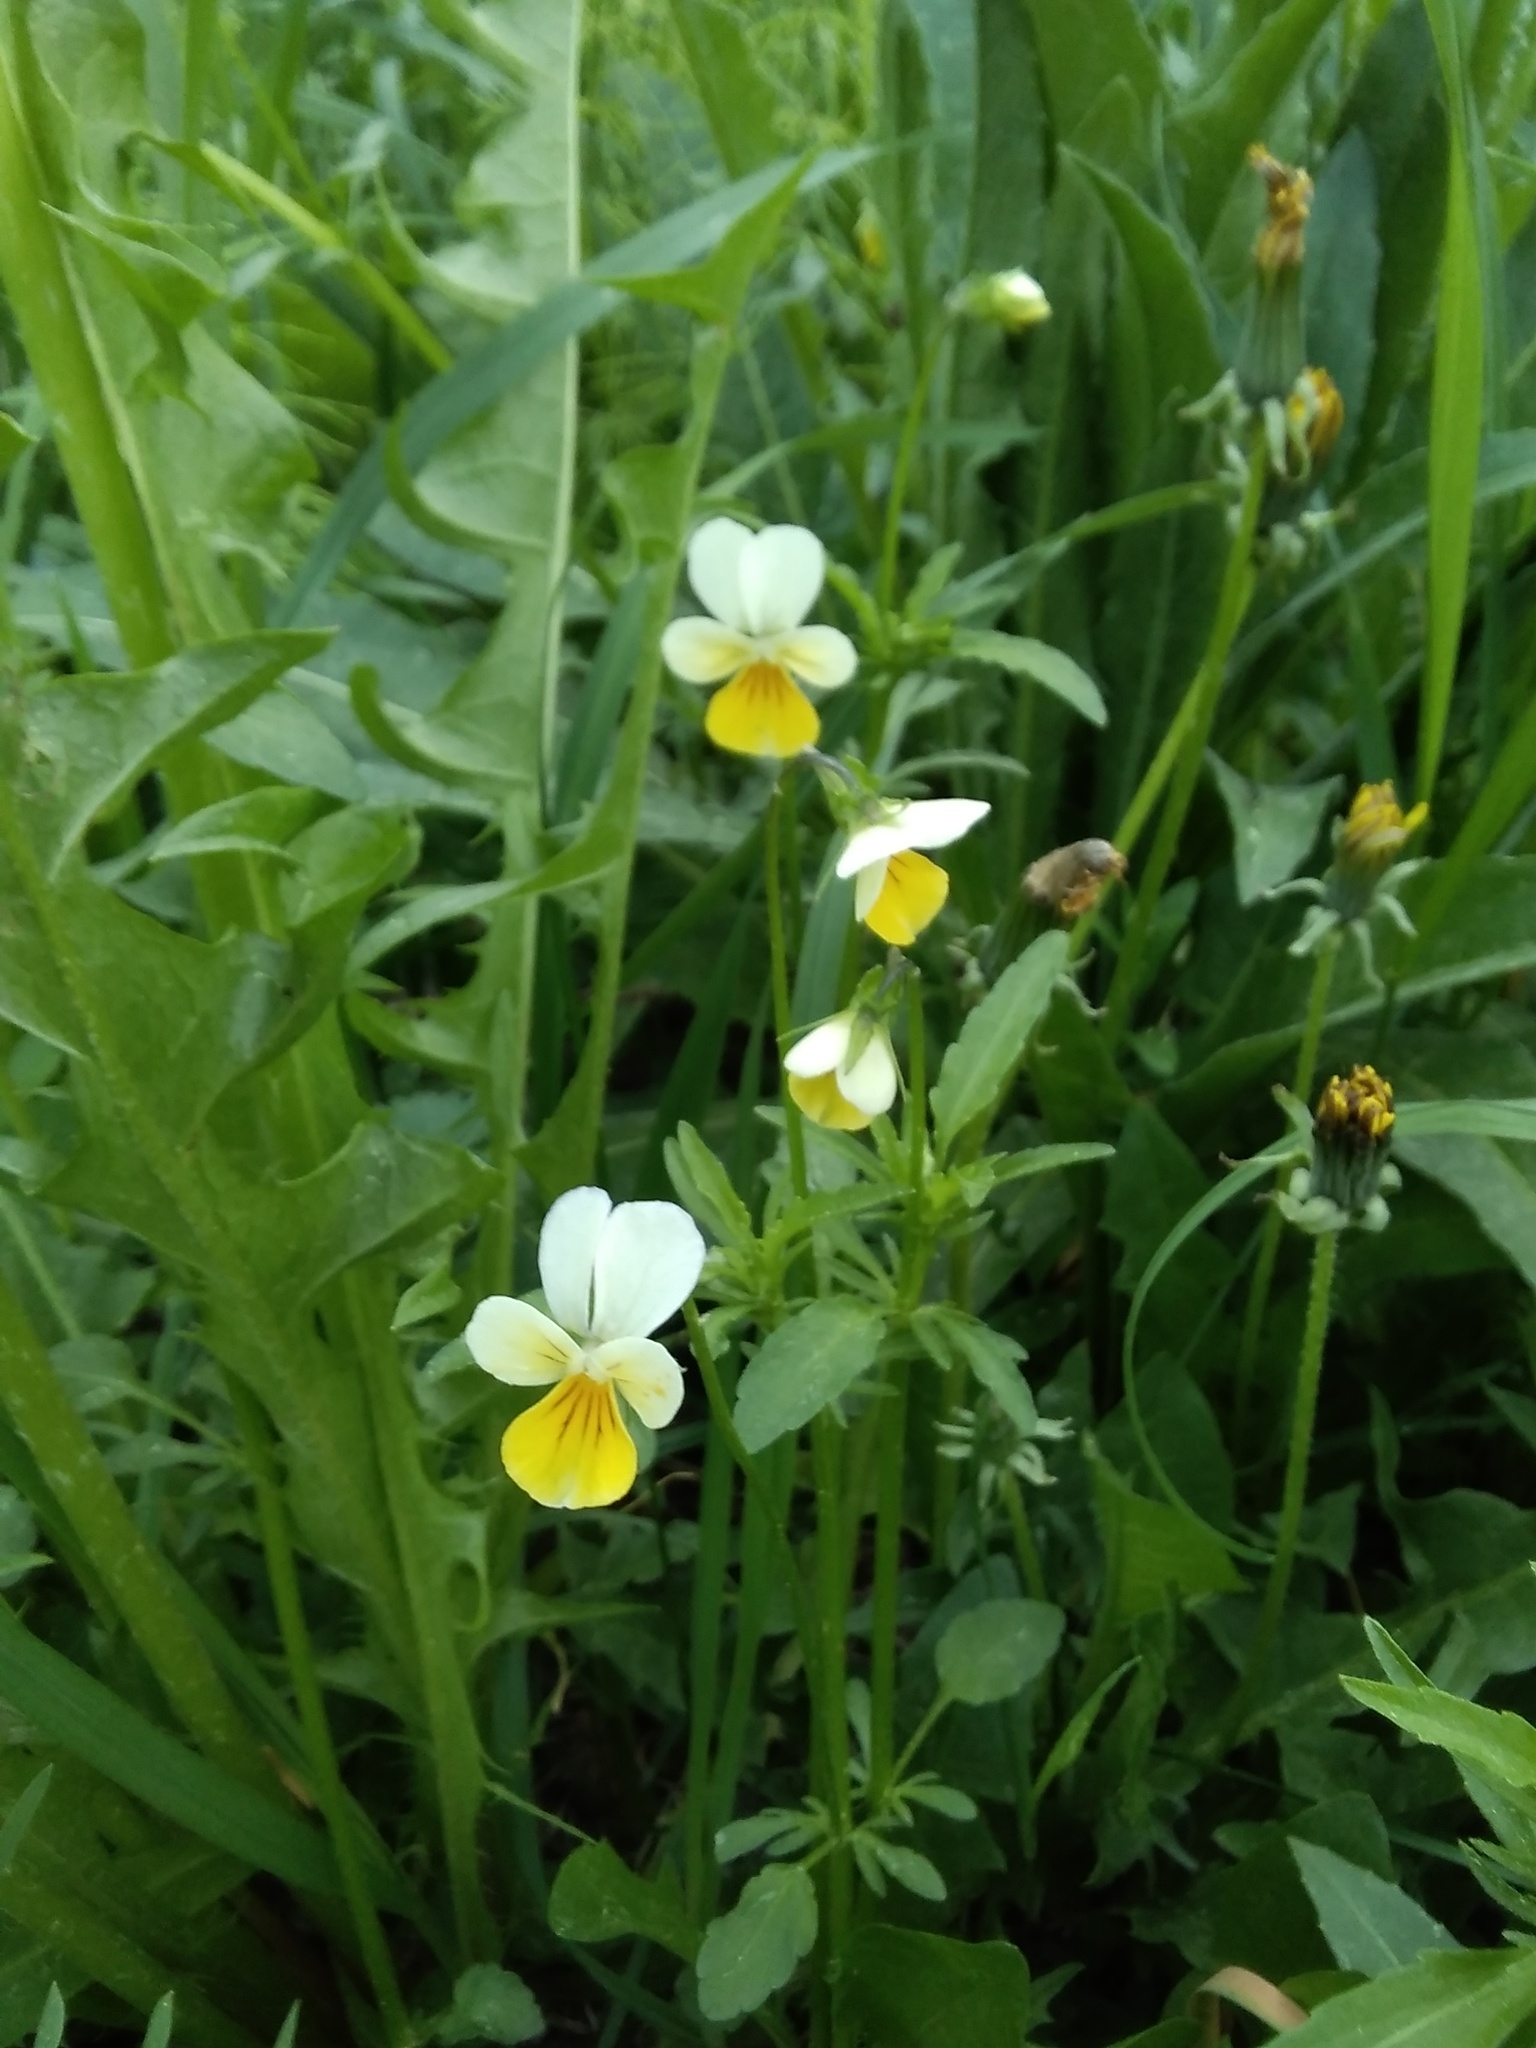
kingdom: Plantae
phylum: Tracheophyta
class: Magnoliopsida
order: Malpighiales
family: Violaceae
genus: Viola
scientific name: Viola arvensis
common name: Field pansy
